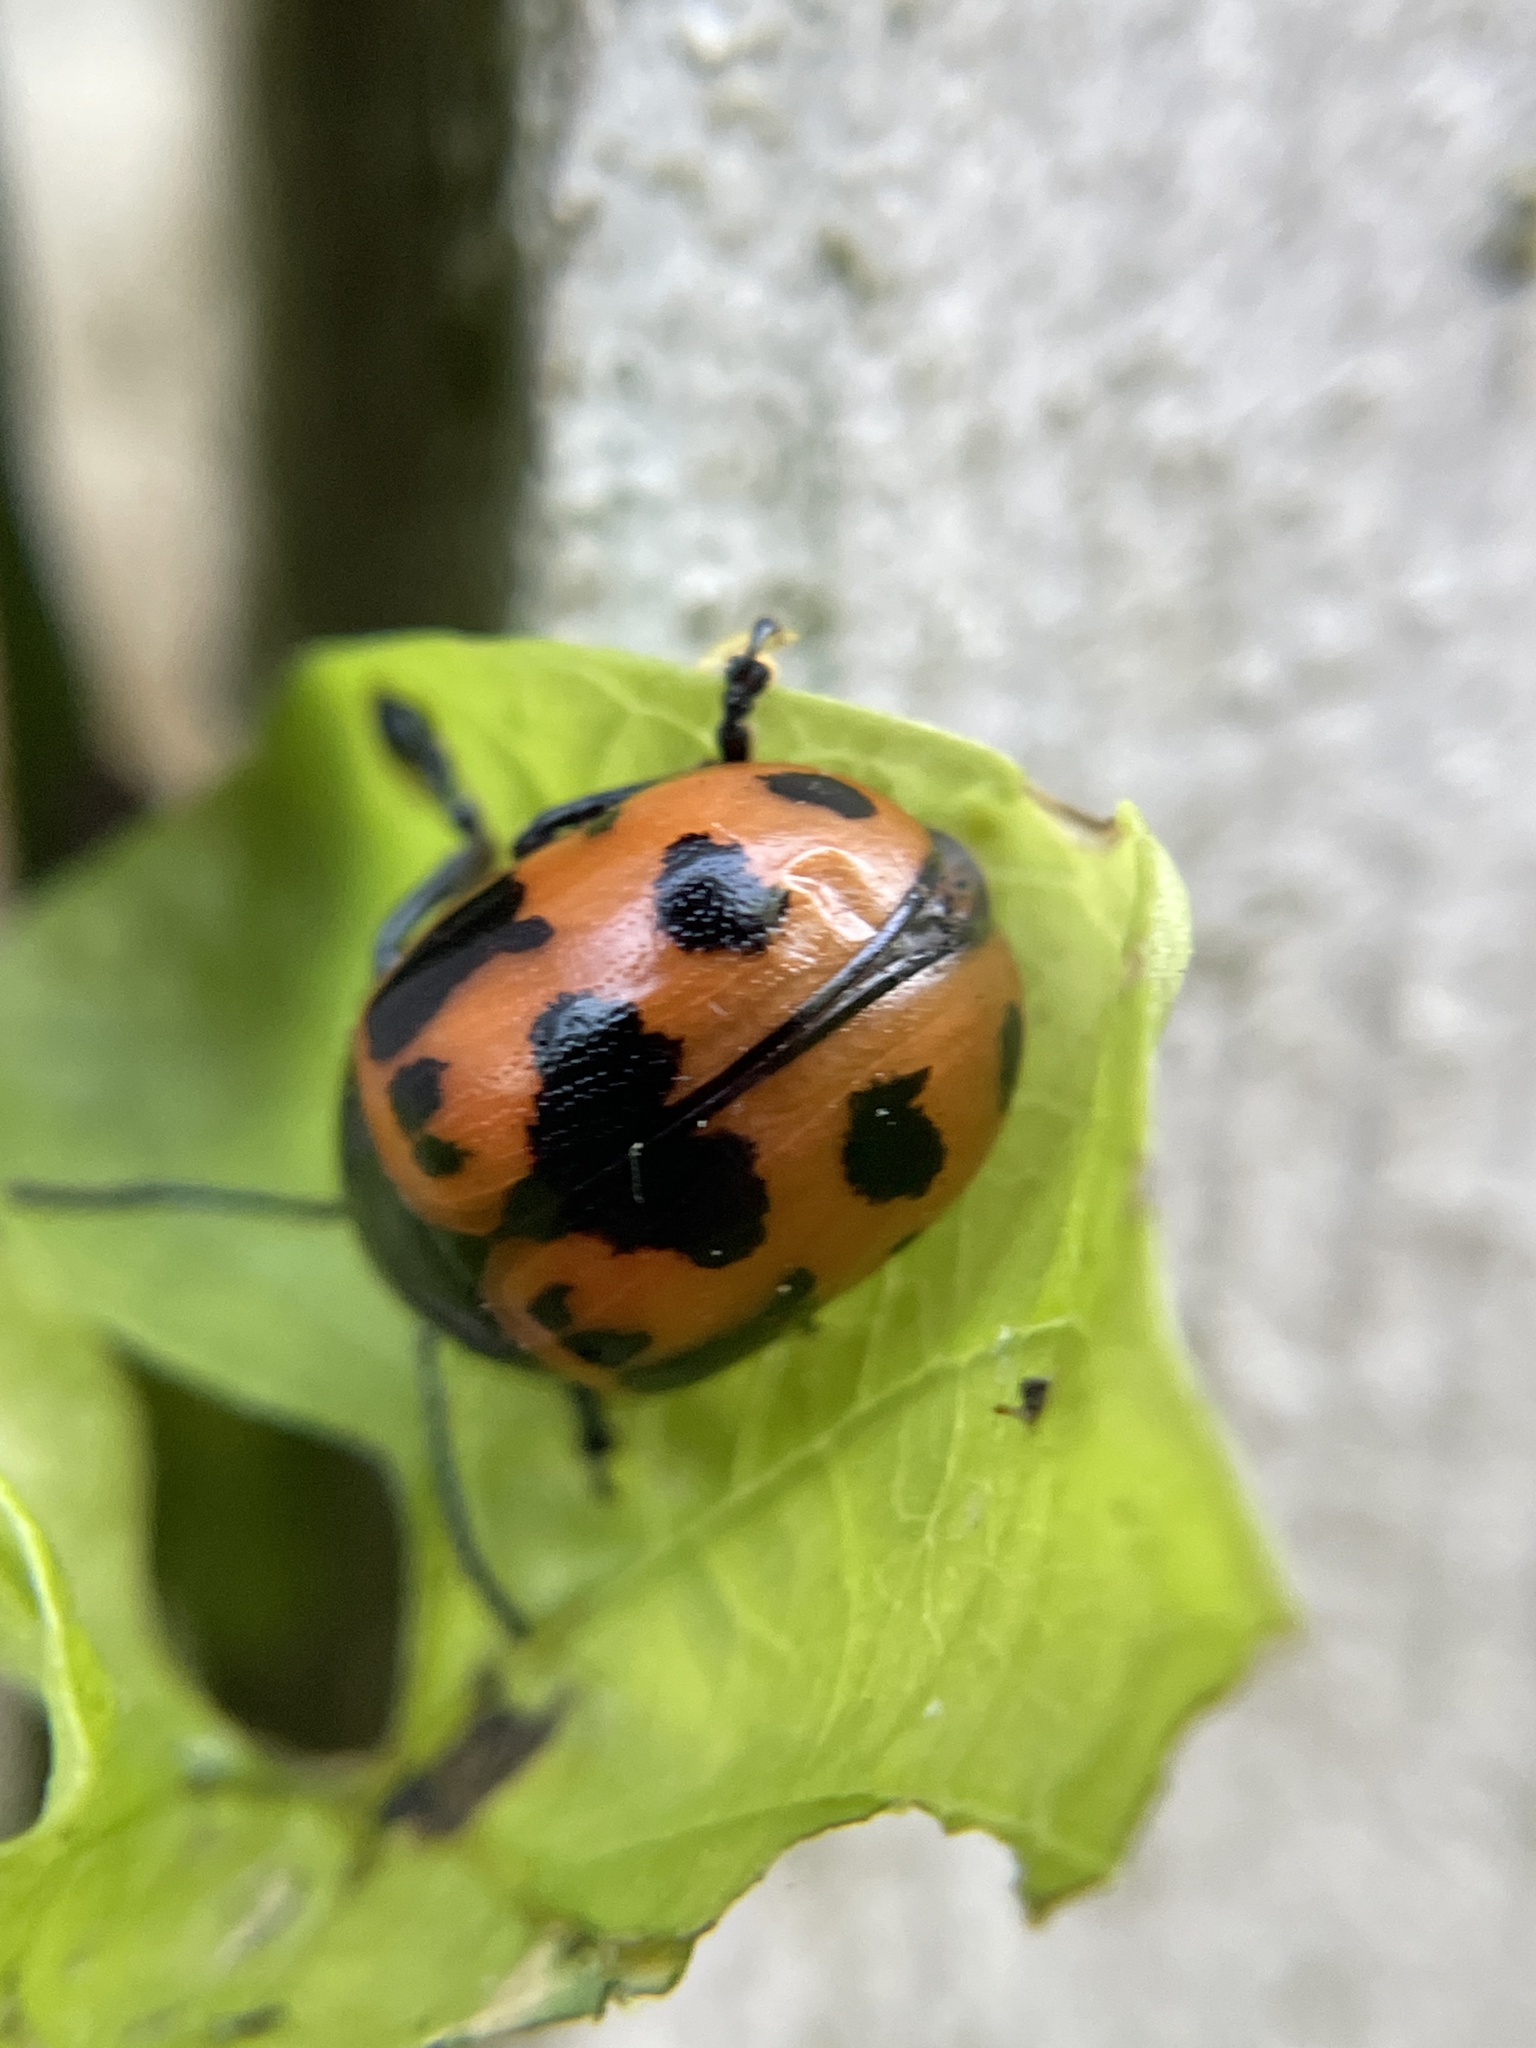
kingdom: Animalia
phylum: Arthropoda
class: Insecta
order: Coleoptera
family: Chrysomelidae
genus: Labidomera
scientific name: Labidomera clivicollis
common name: Swamp milkweed leaf beetle
